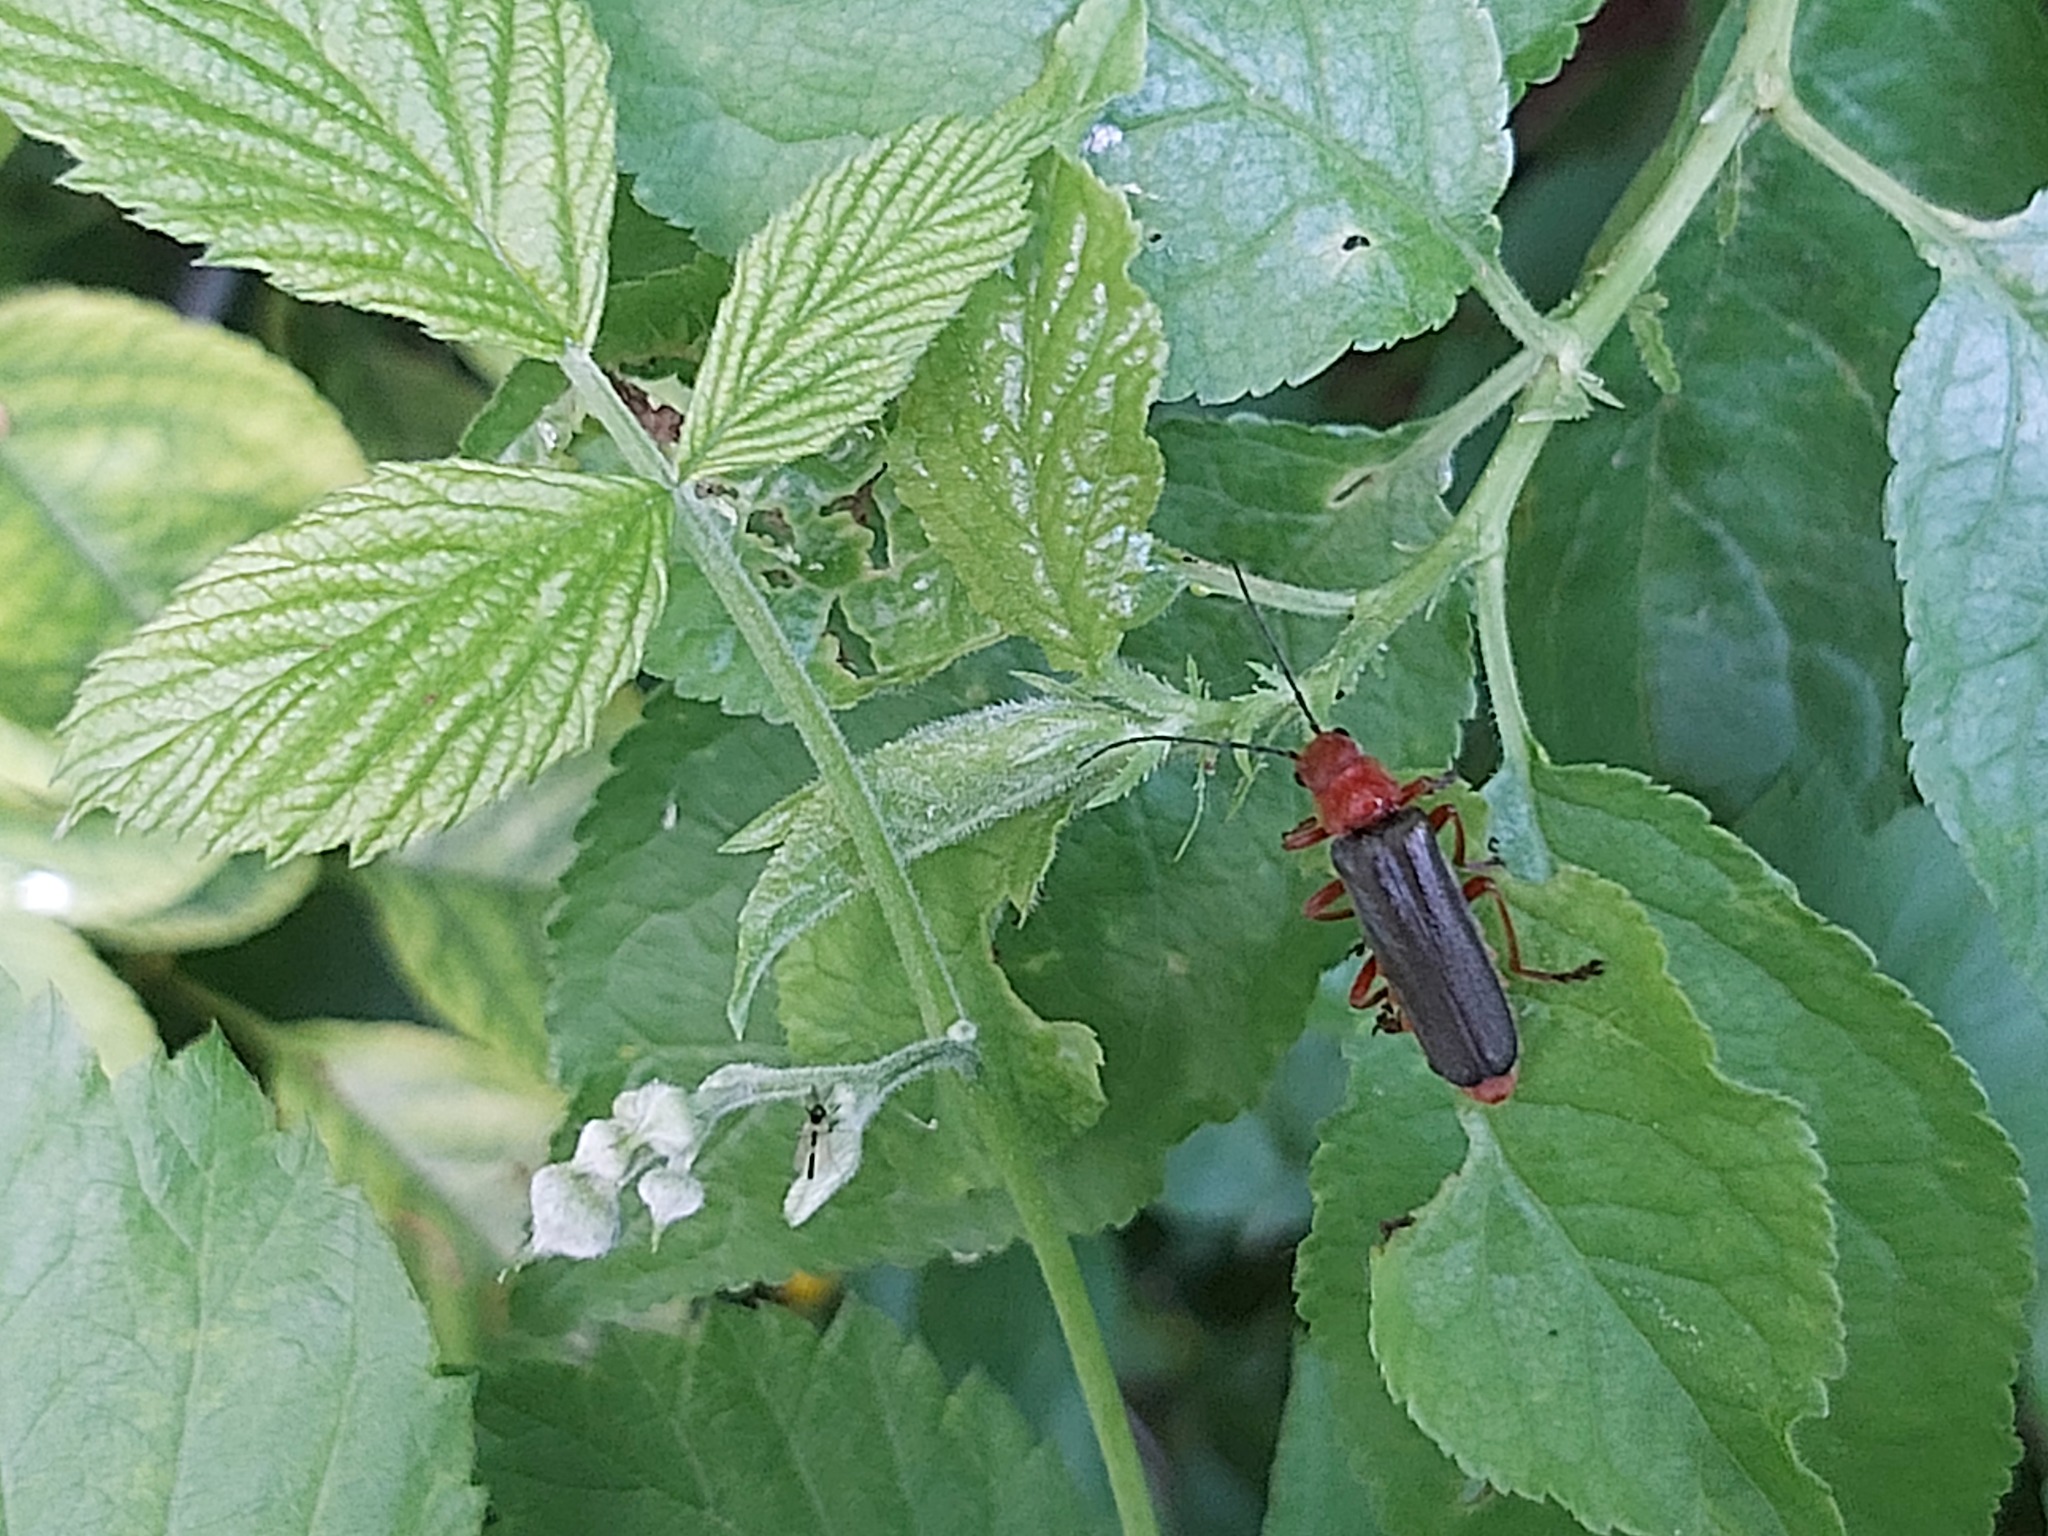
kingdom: Animalia
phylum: Arthropoda
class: Insecta
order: Coleoptera
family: Cantharidae
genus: Ancistronycha
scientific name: Ancistronycha tigurina
